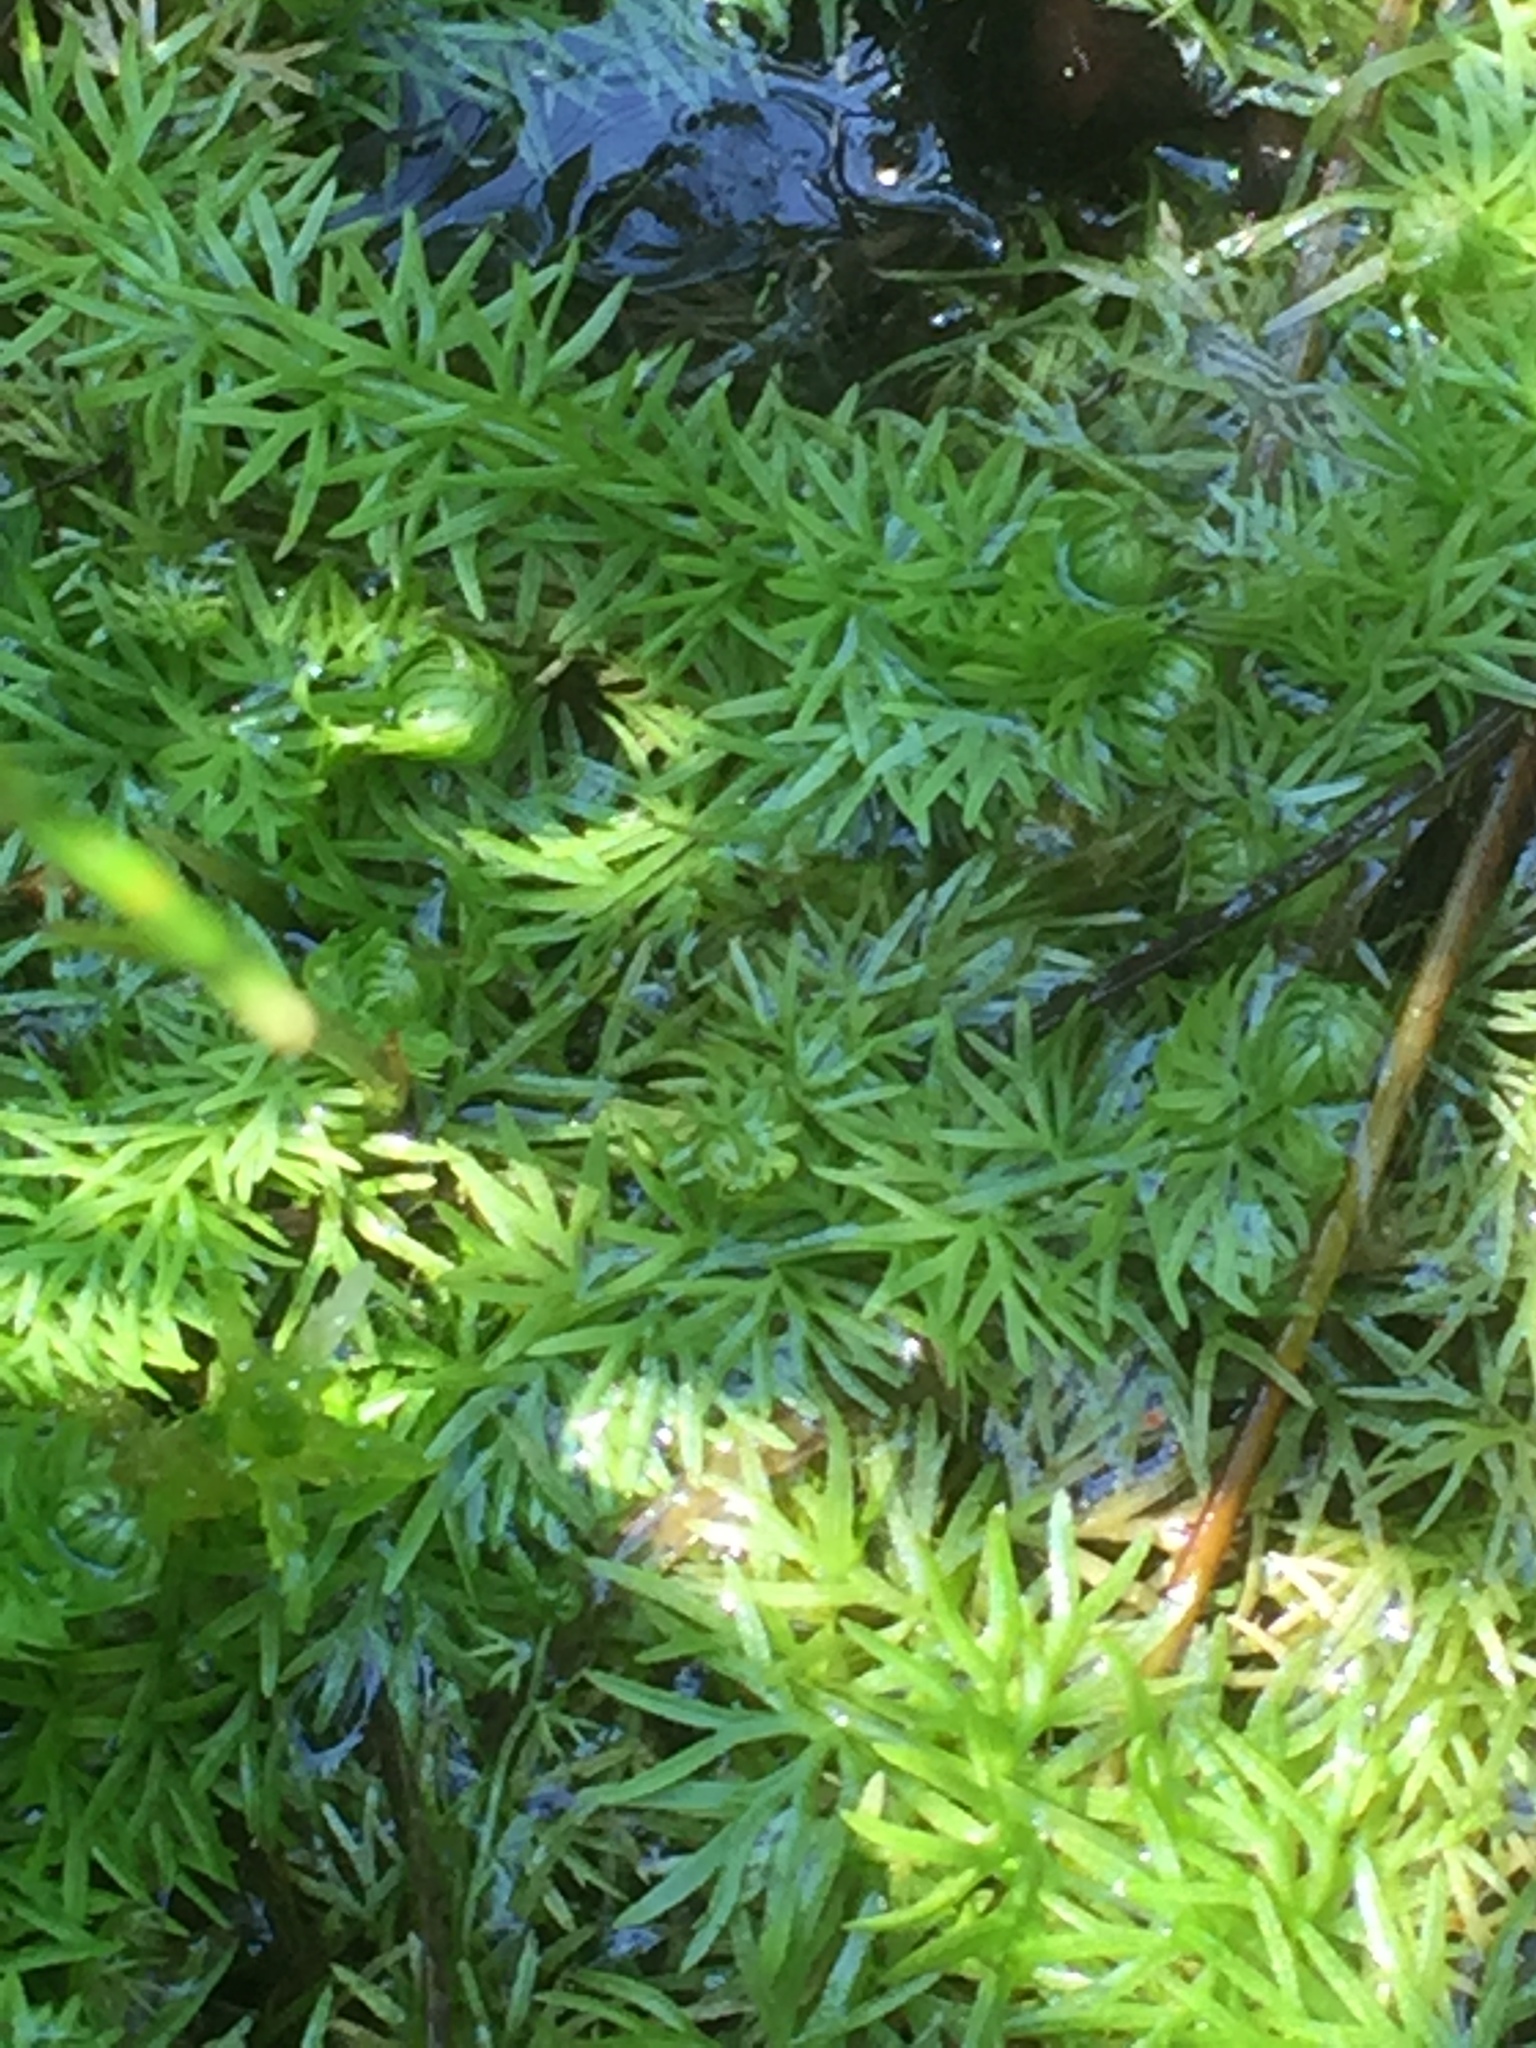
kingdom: Plantae
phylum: Tracheophyta
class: Magnoliopsida
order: Lamiales
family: Lentibulariaceae
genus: Utricularia
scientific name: Utricularia intermedia
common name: Intermediate bladderwort
